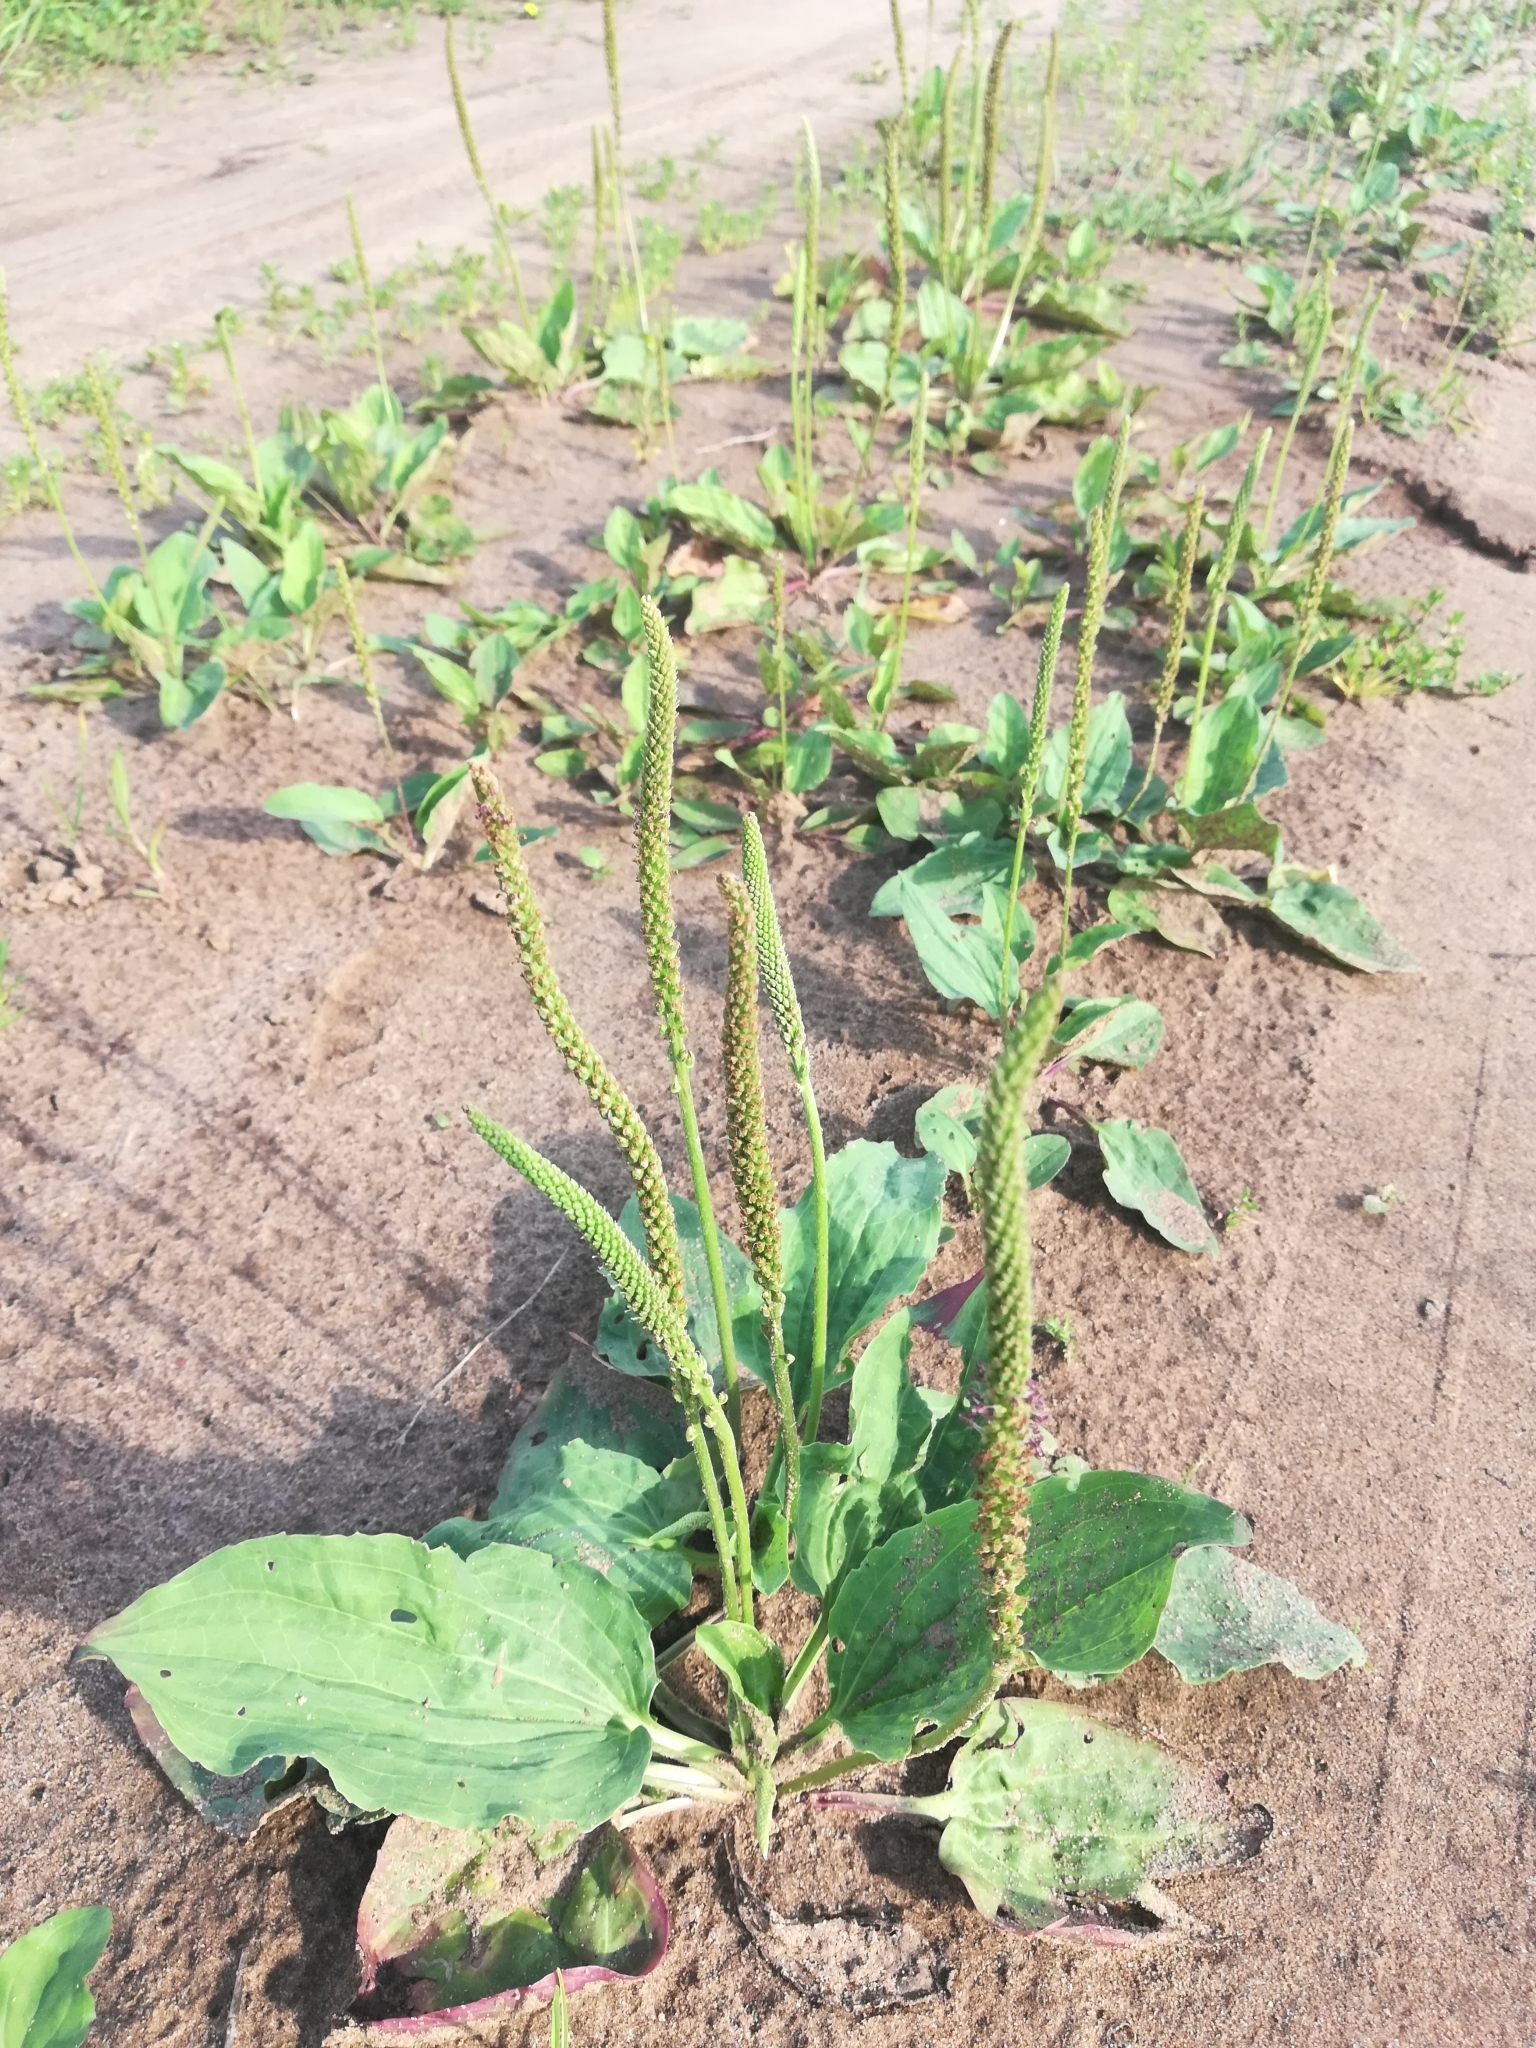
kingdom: Plantae
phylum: Tracheophyta
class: Magnoliopsida
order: Lamiales
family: Plantaginaceae
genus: Plantago
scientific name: Plantago major
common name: Common plantain
